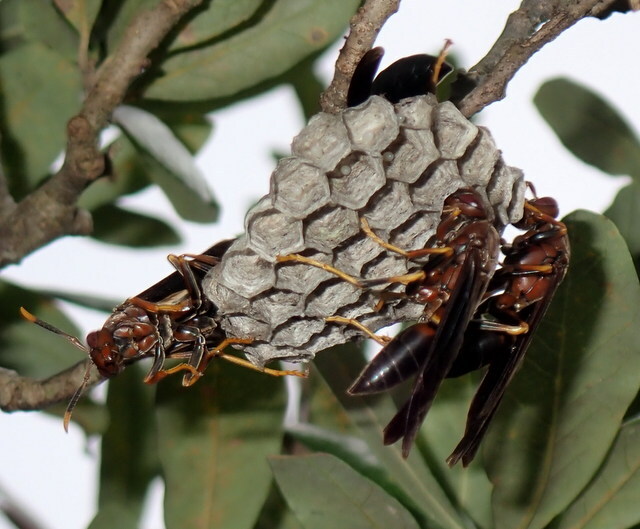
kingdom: Animalia
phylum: Arthropoda
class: Insecta
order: Hymenoptera
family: Eumenidae
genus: Polistes
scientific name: Polistes annularis
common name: Ringed paper wasp
